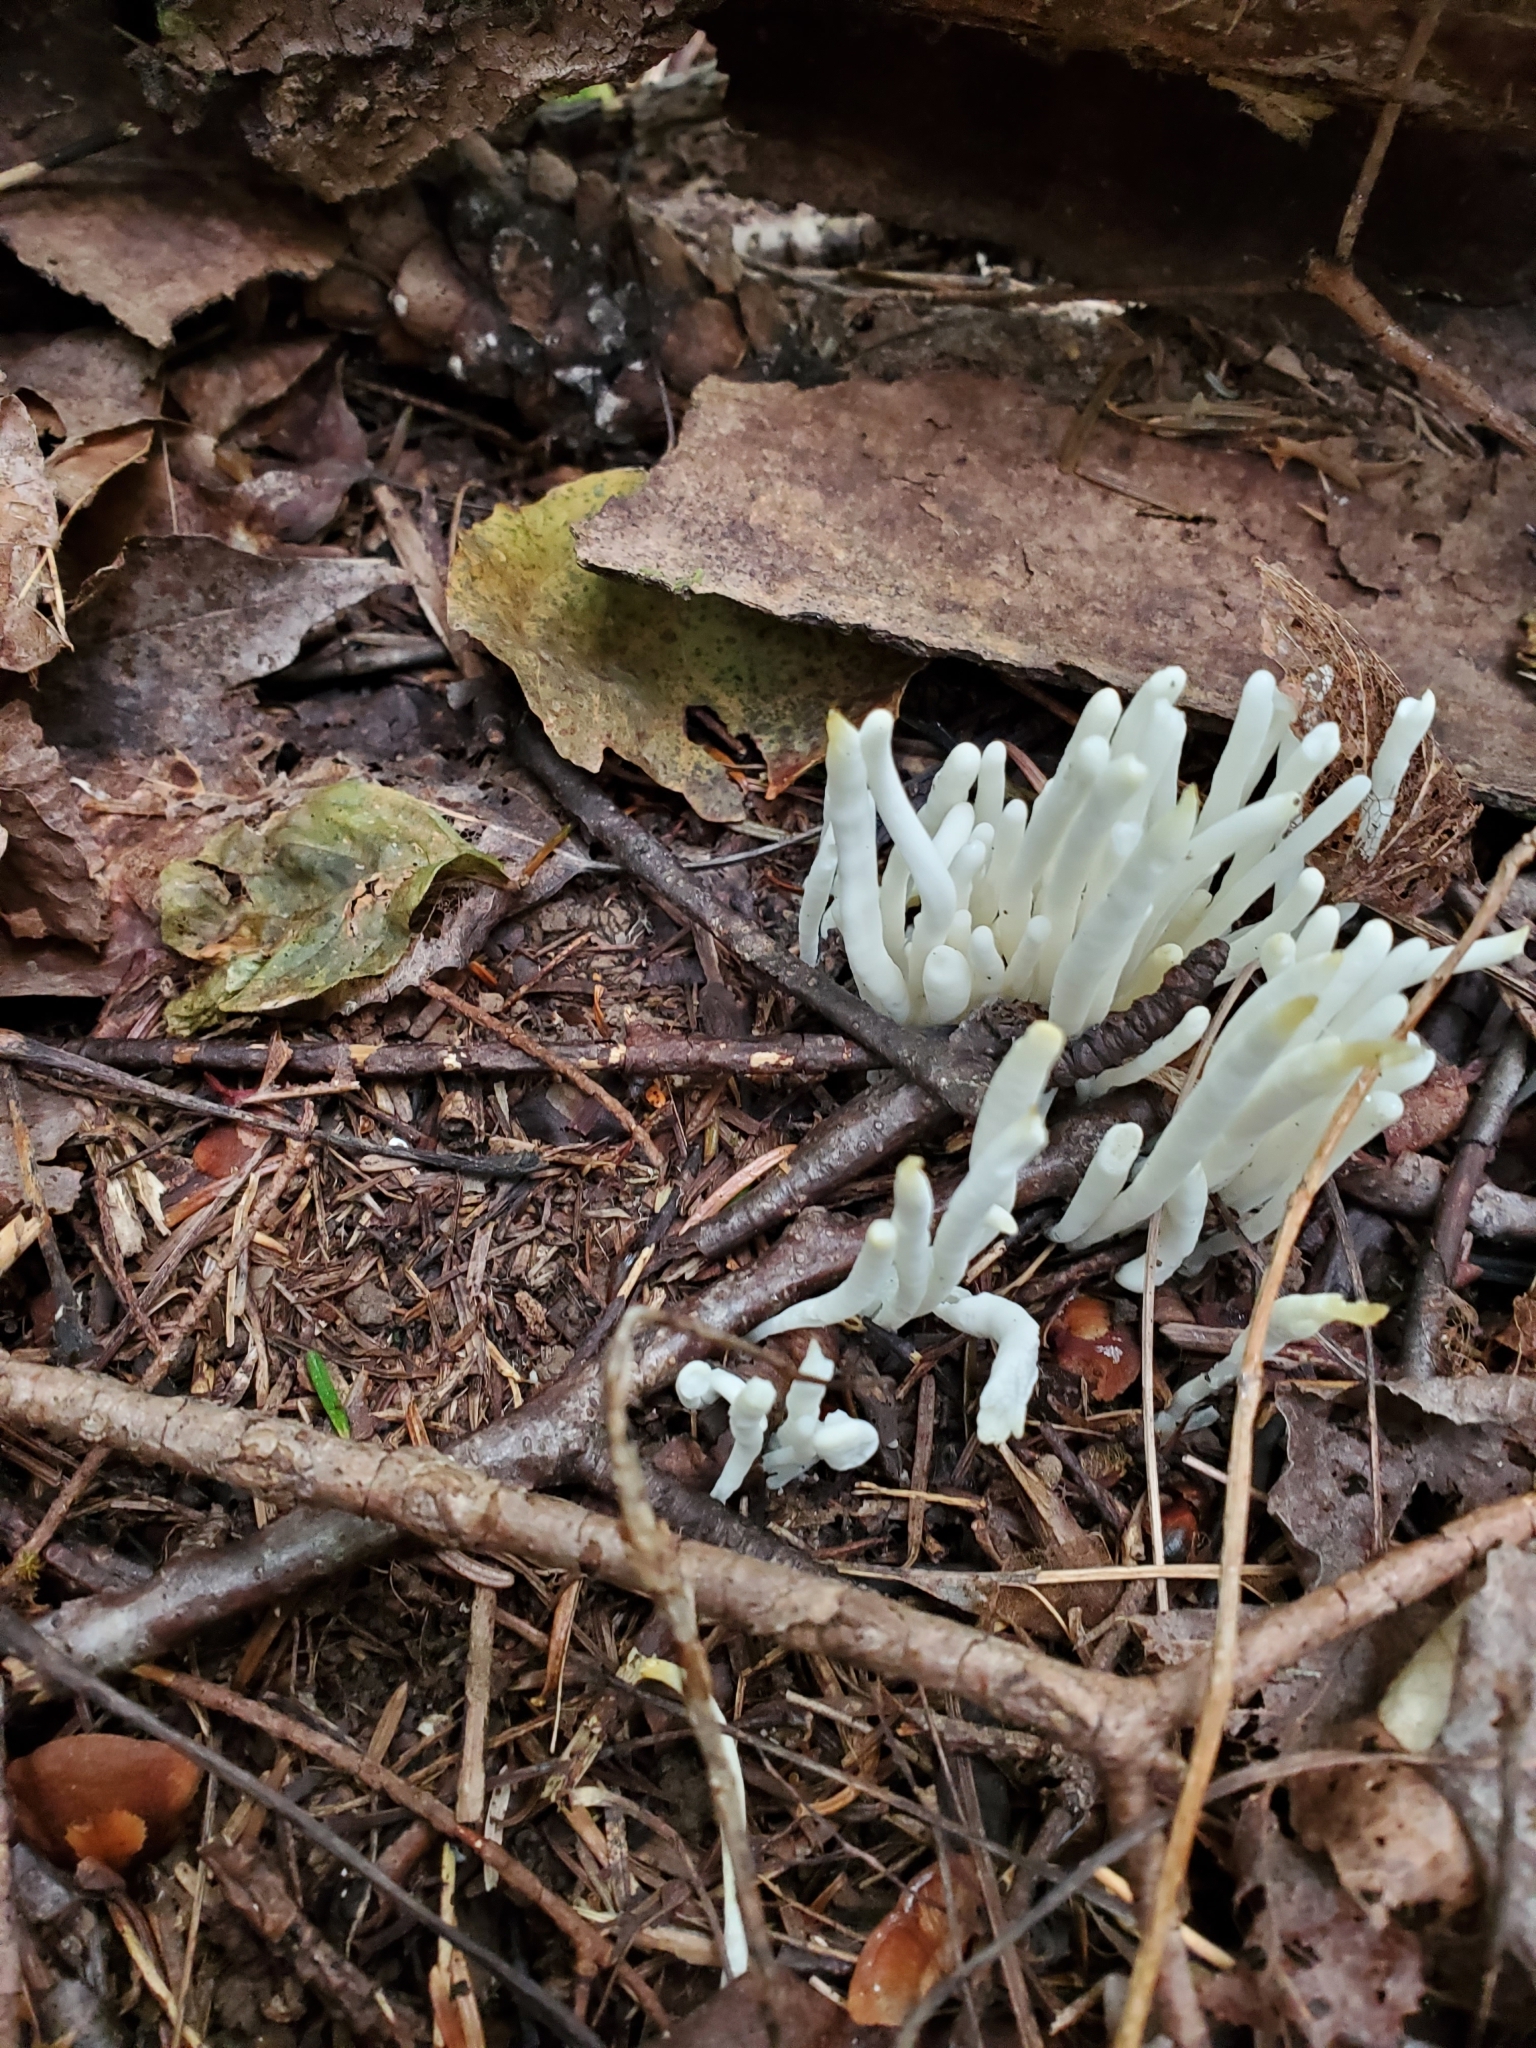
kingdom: Fungi
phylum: Basidiomycota
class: Agaricomycetes
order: Agaricales
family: Clavariaceae
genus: Clavaria
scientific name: Clavaria fragilis
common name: White spindles
